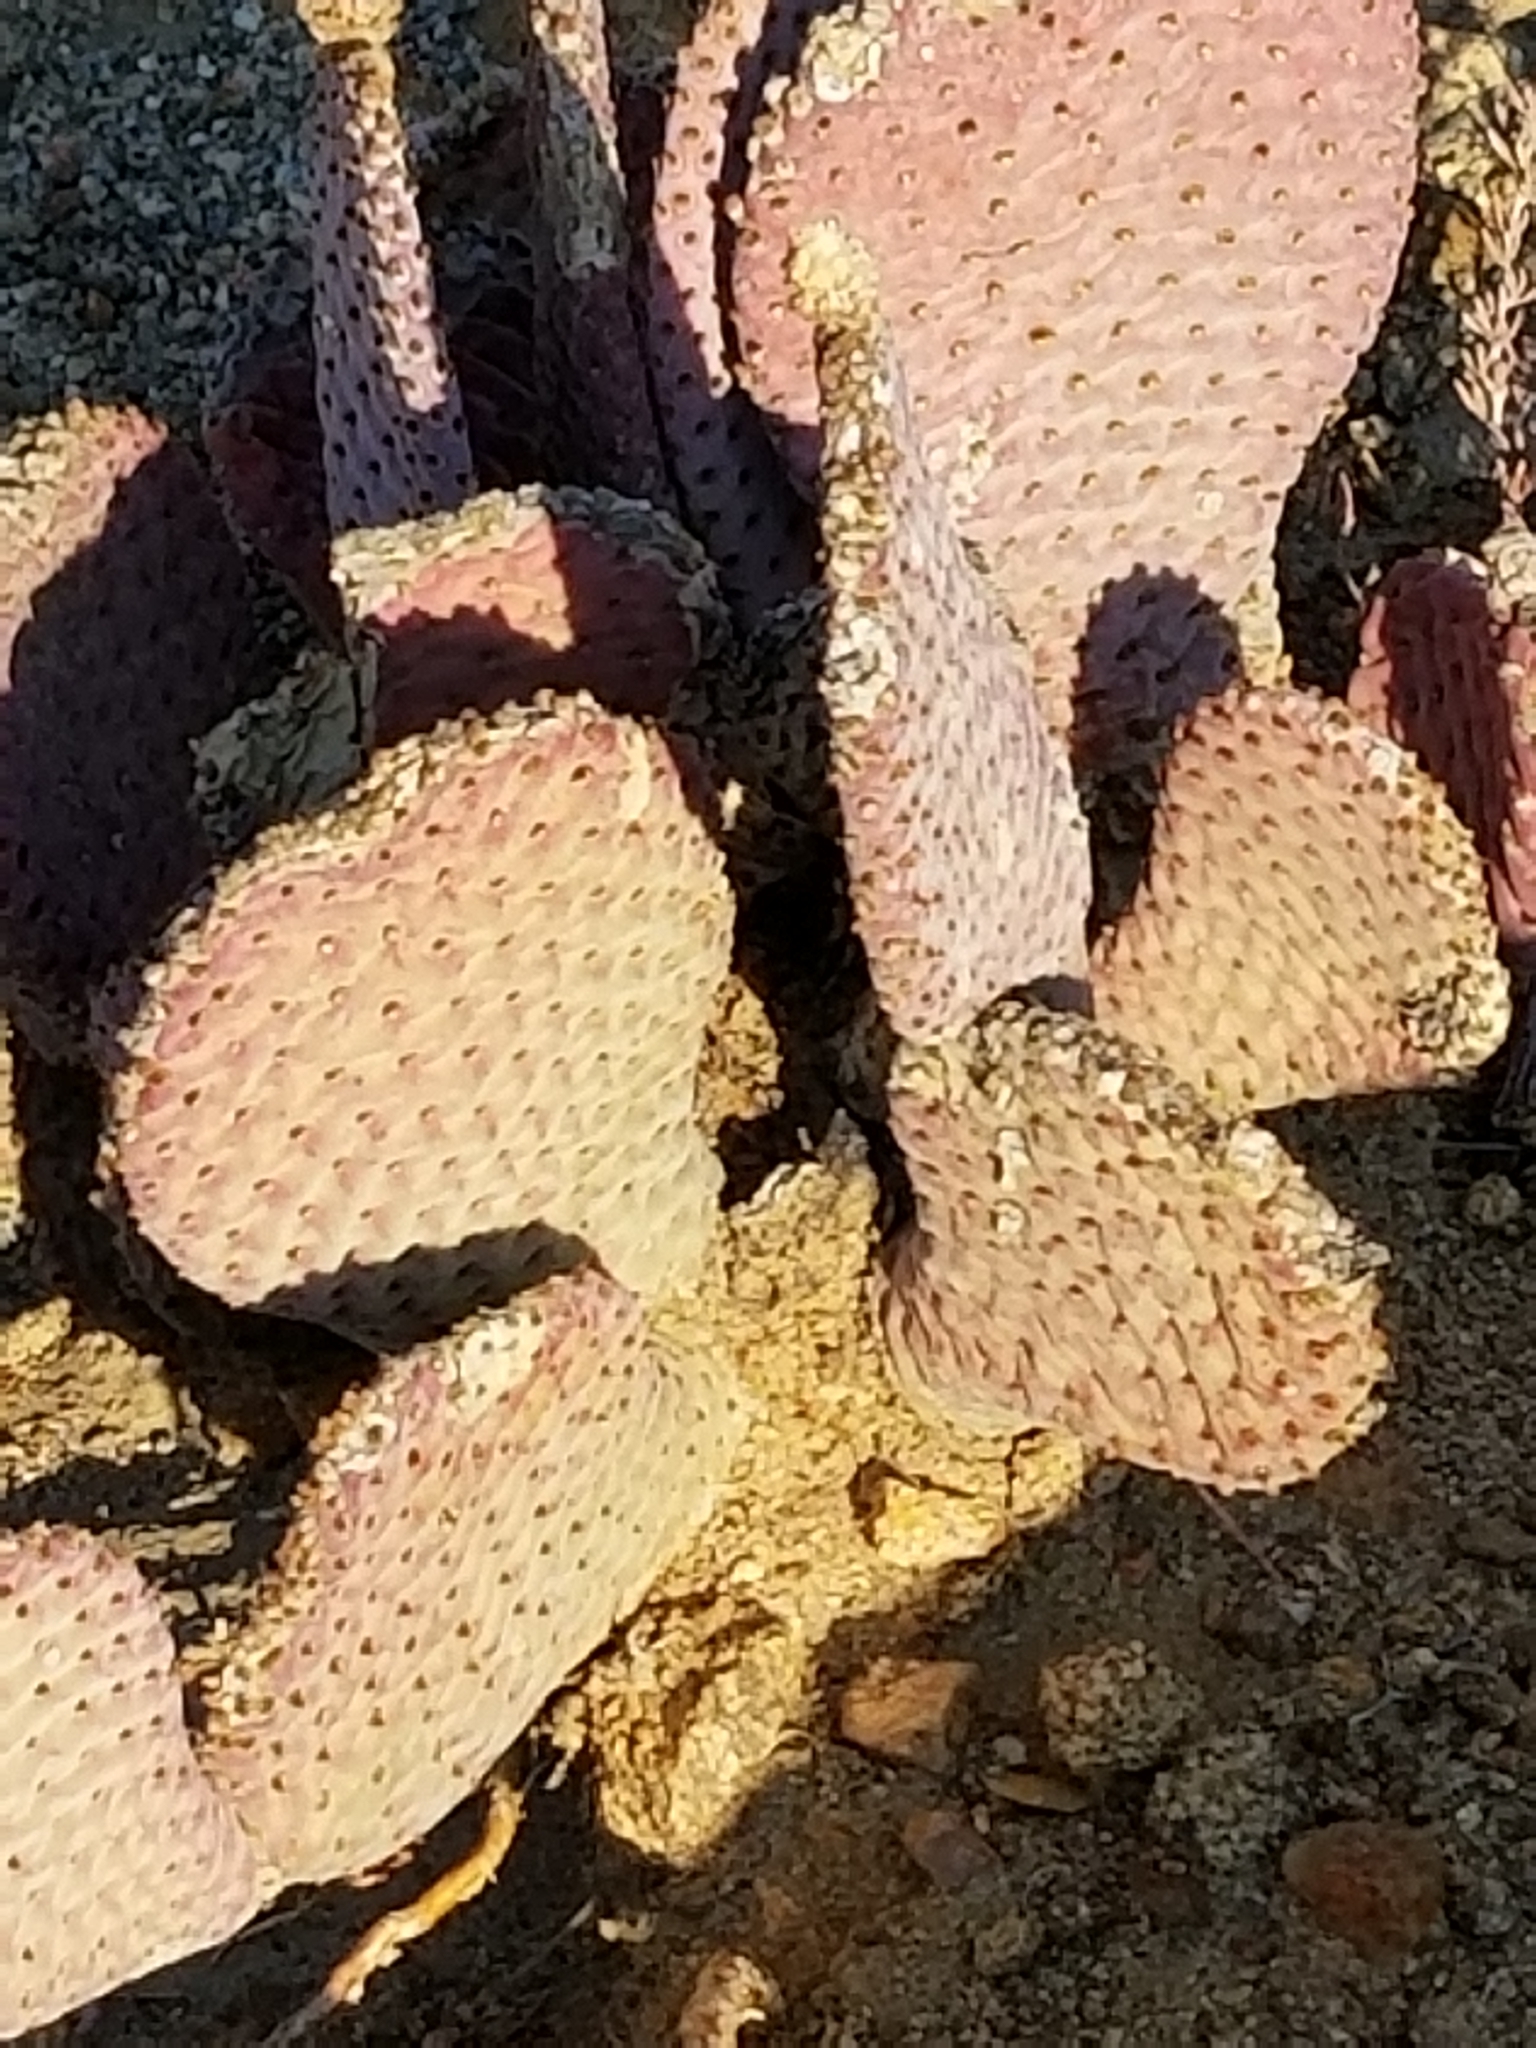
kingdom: Plantae
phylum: Tracheophyta
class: Magnoliopsida
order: Caryophyllales
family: Cactaceae
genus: Opuntia
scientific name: Opuntia basilaris
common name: Beavertail prickly-pear
